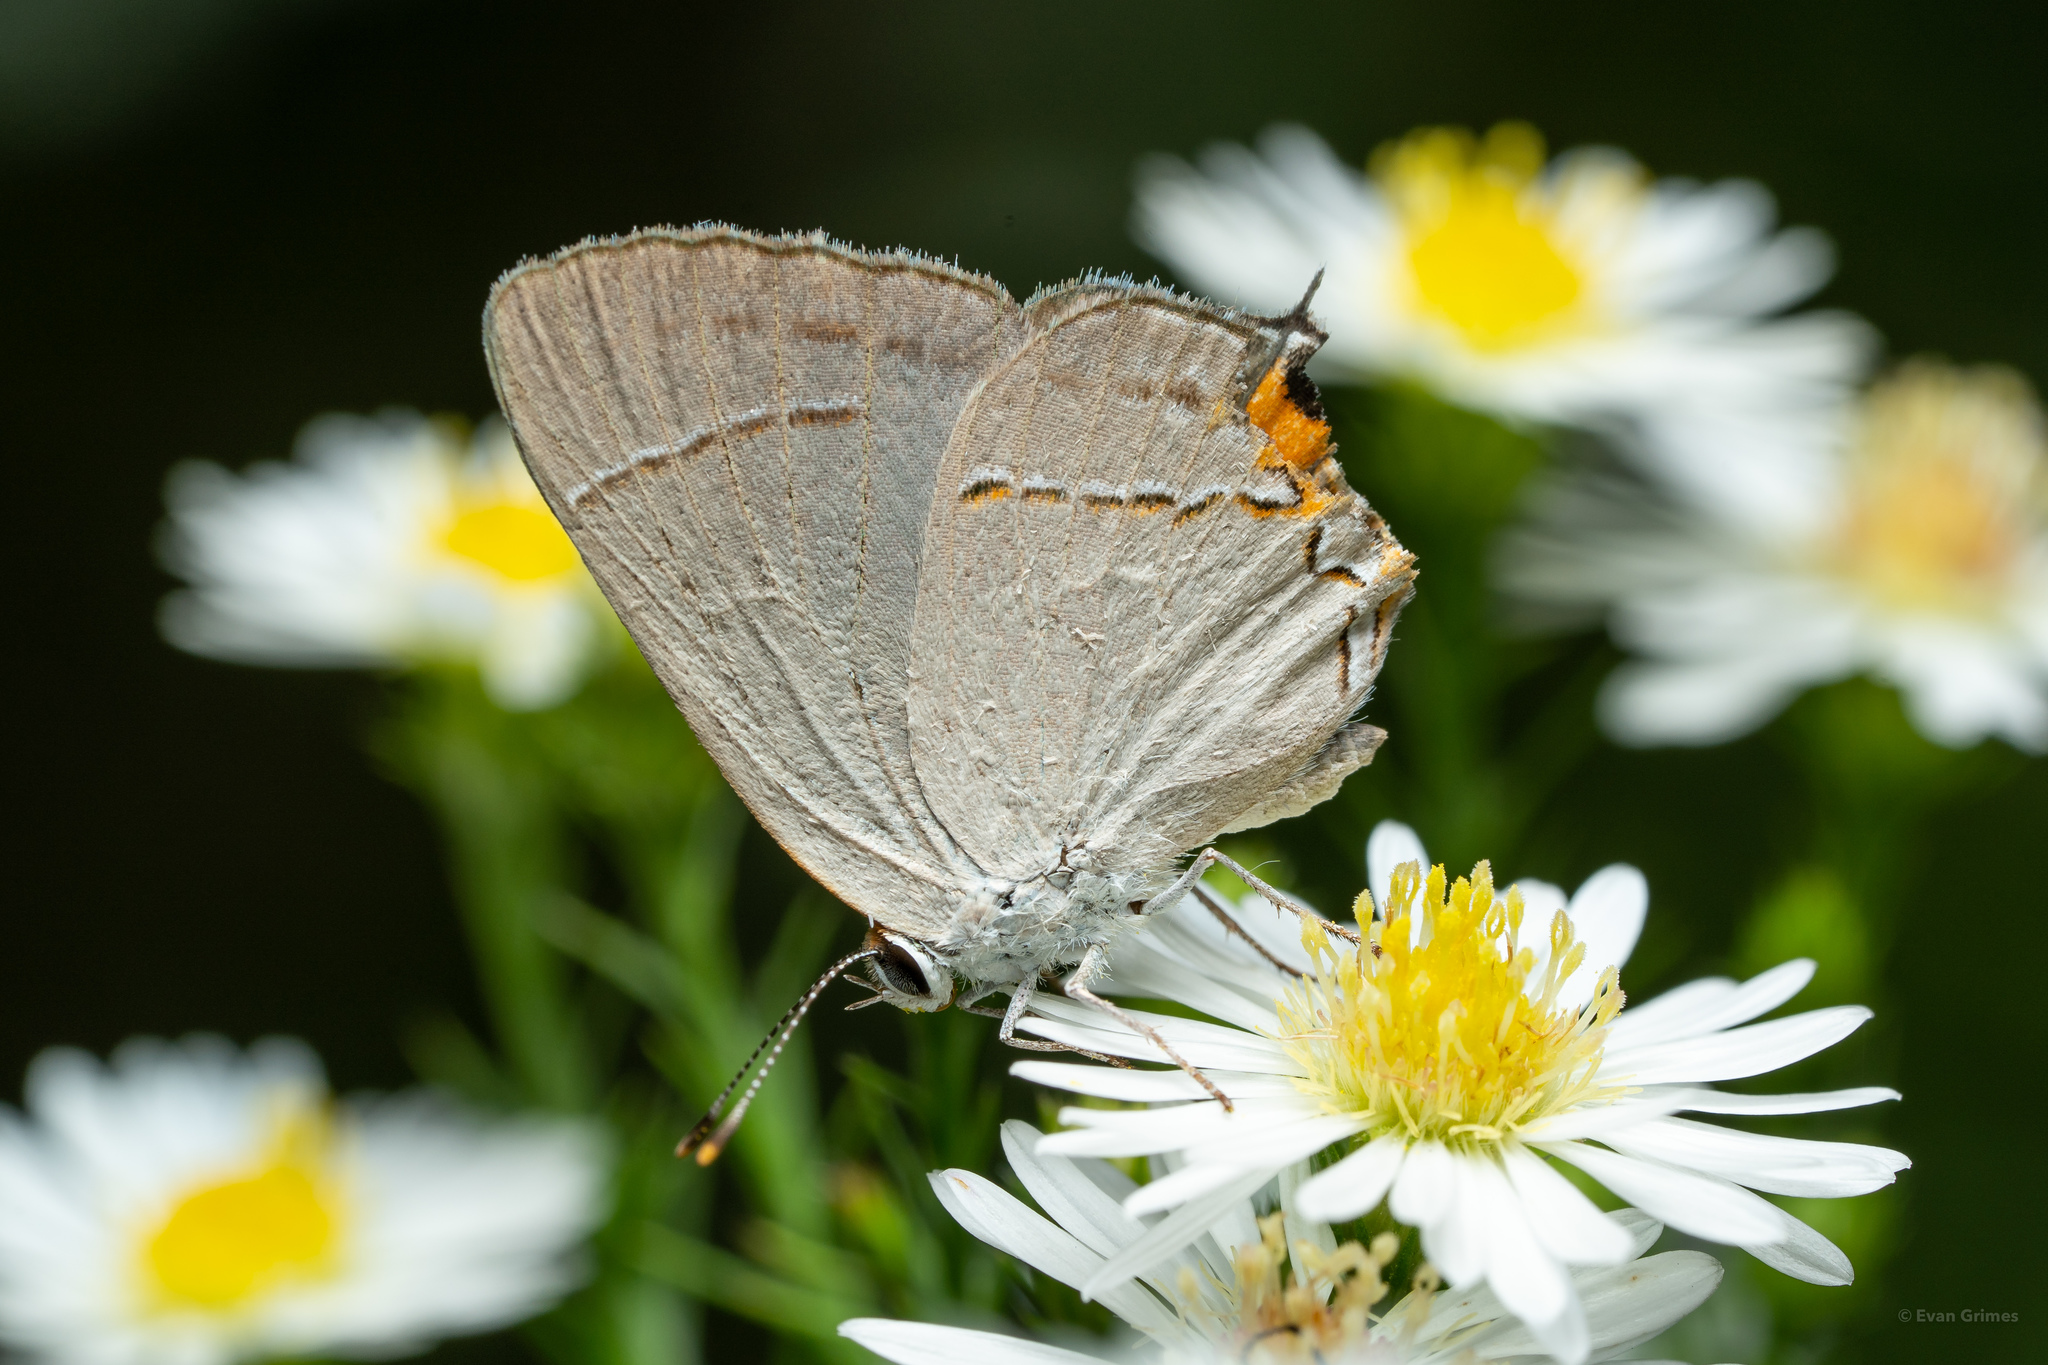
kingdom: Animalia
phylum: Arthropoda
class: Insecta
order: Lepidoptera
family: Lycaenidae
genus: Strymon
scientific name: Strymon melinus
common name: Gray hairstreak
